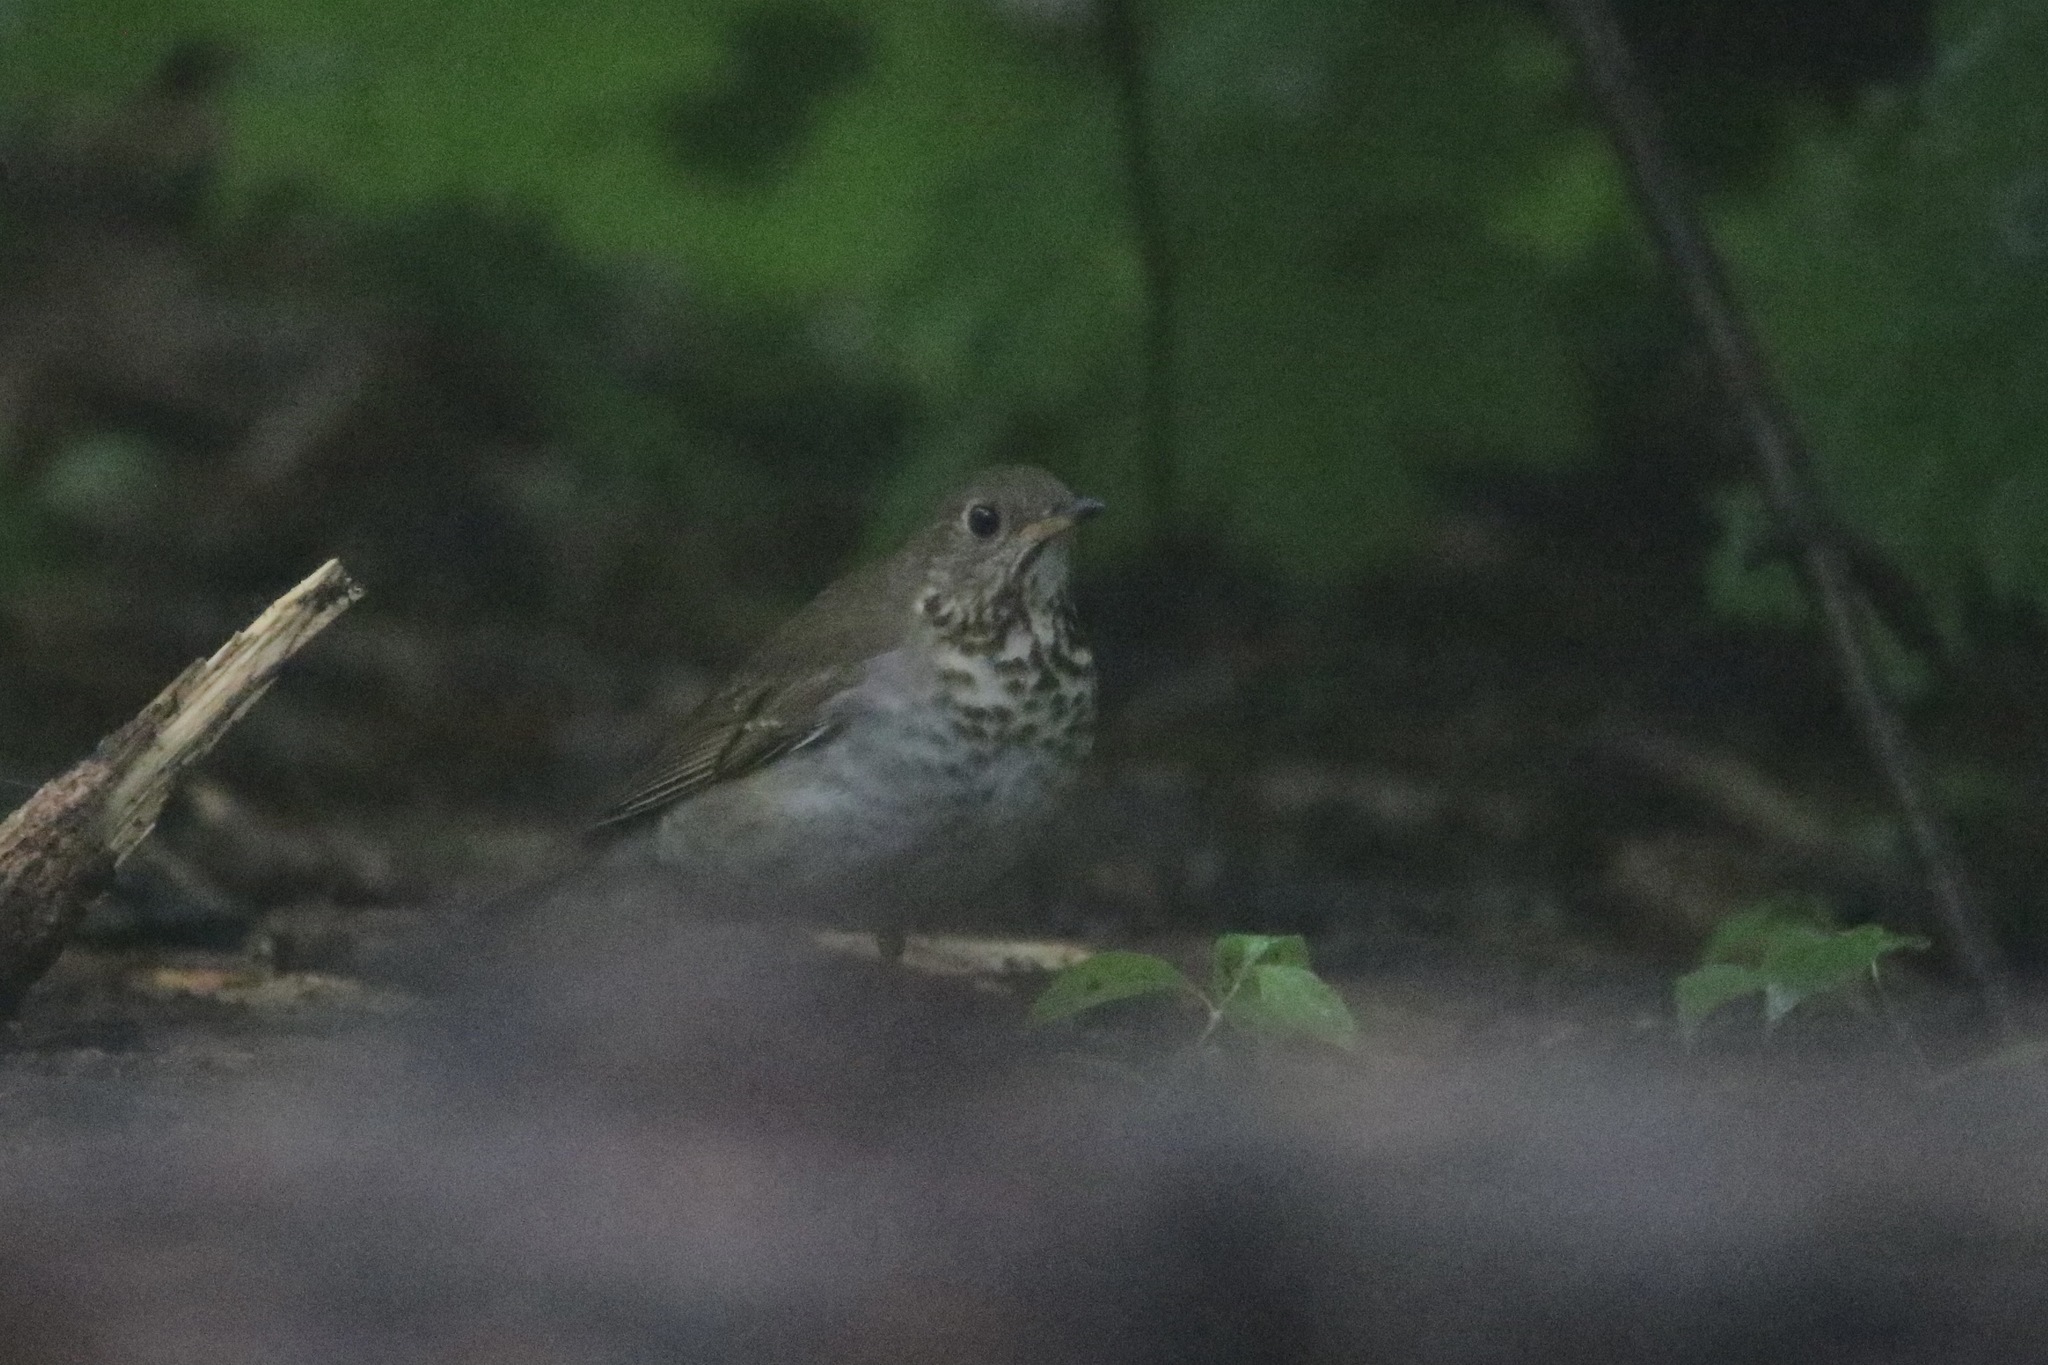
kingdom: Animalia
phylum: Chordata
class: Aves
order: Passeriformes
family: Turdidae
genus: Catharus
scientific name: Catharus bicknelli
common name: Bicknell's thrush
